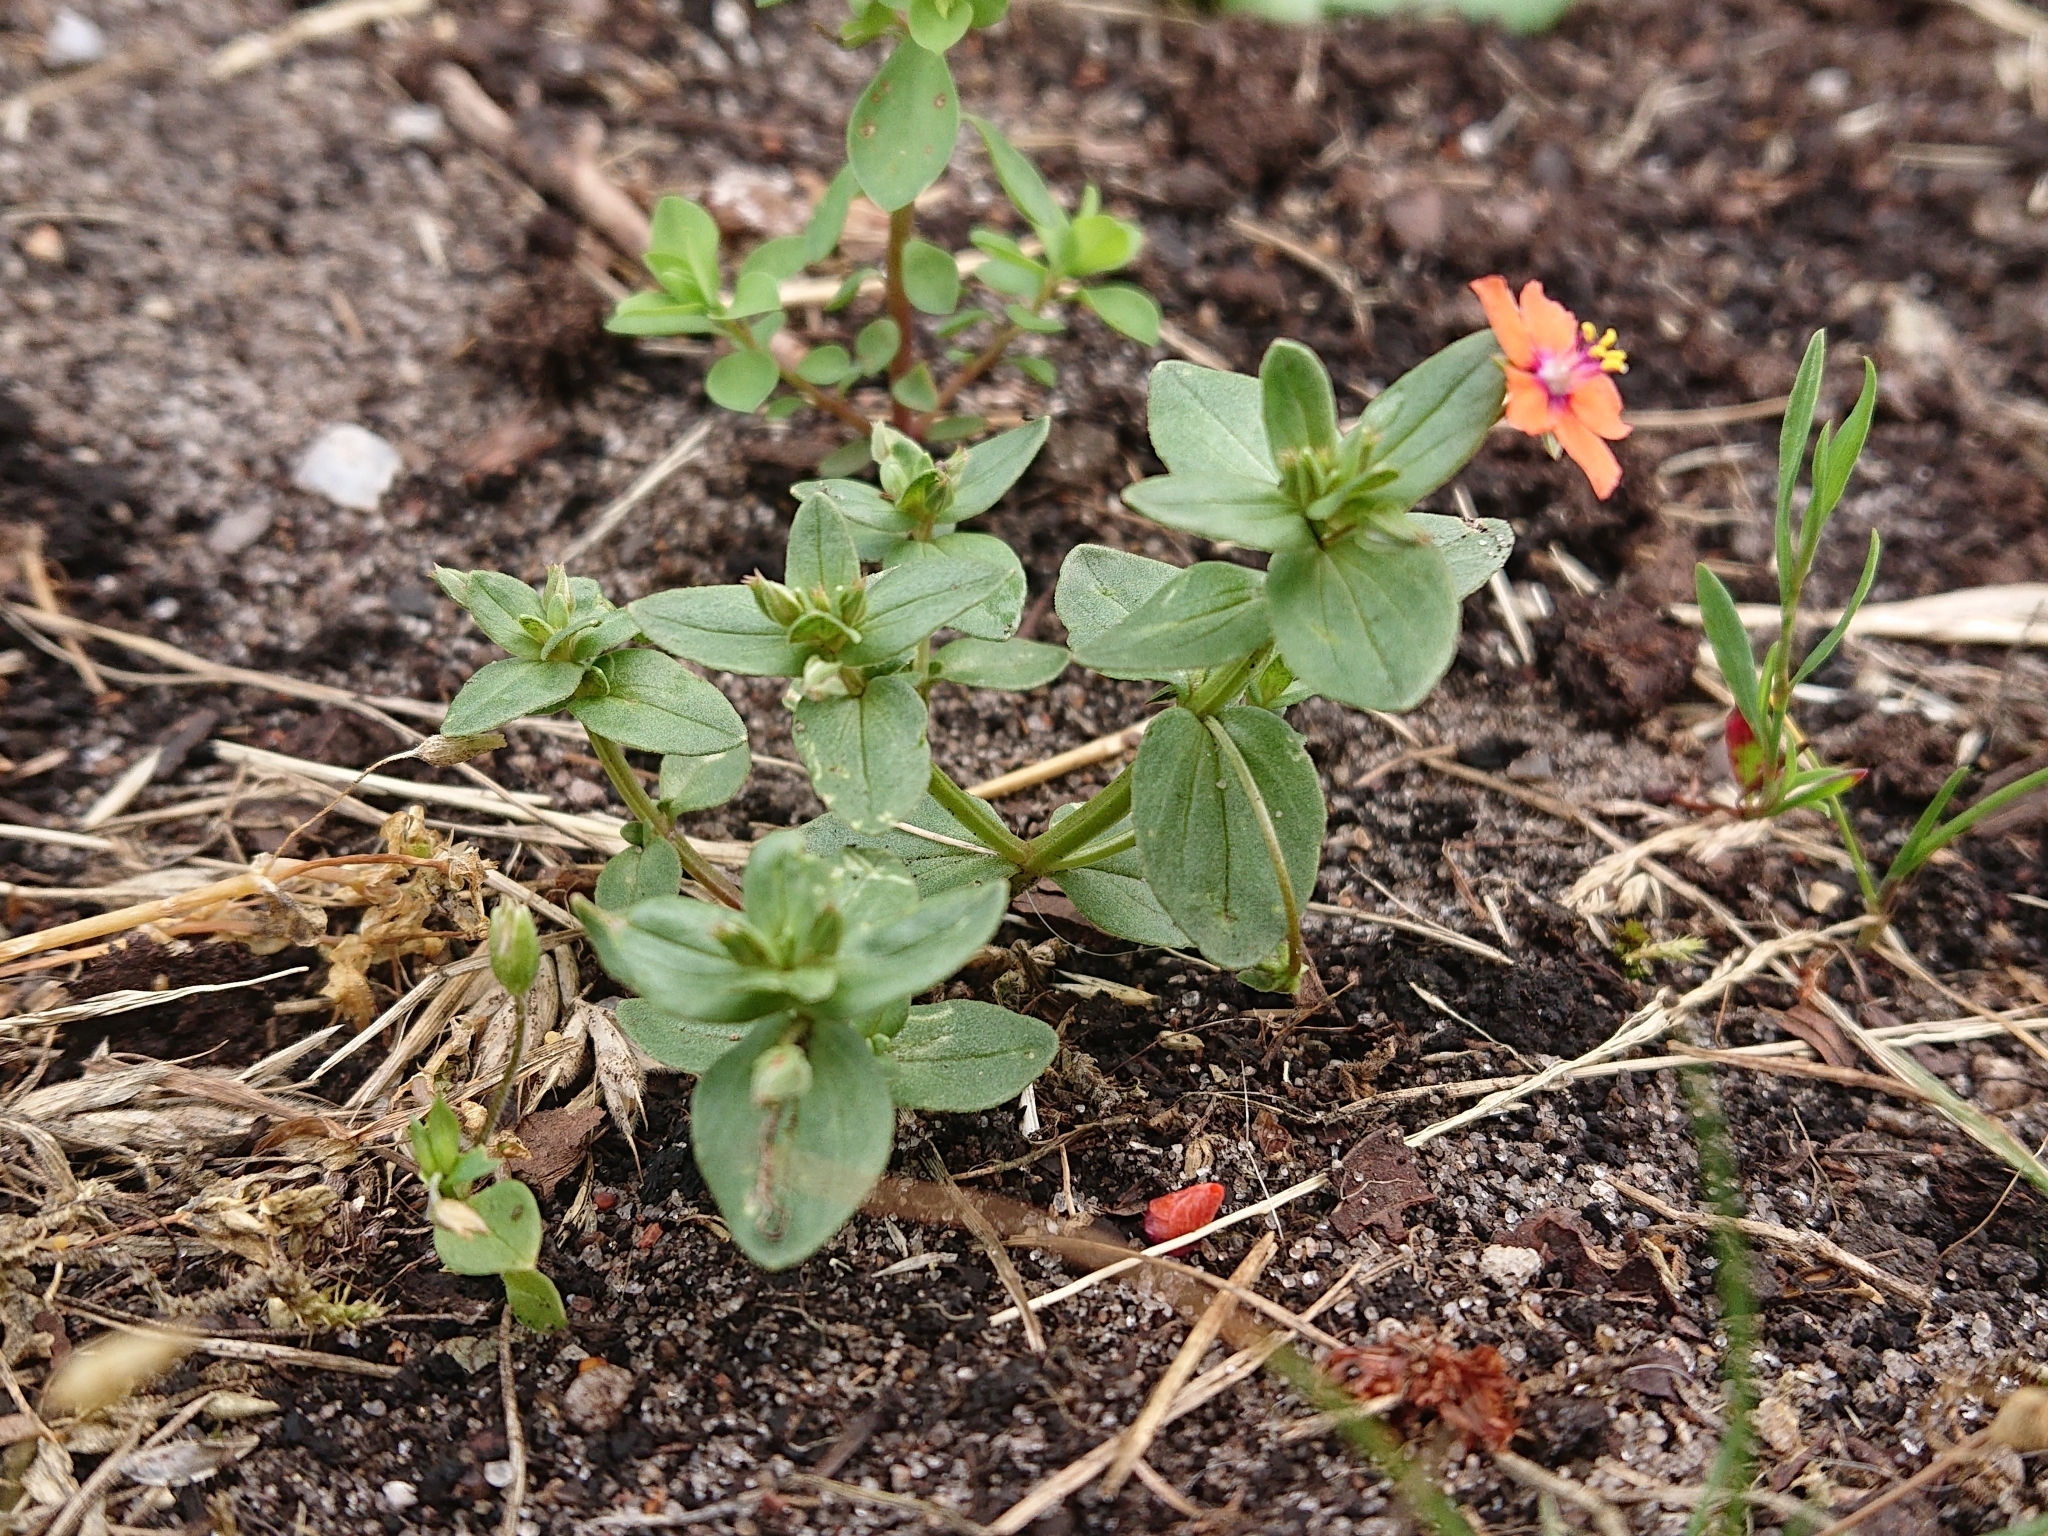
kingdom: Plantae
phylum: Tracheophyta
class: Magnoliopsida
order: Ericales
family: Primulaceae
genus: Lysimachia
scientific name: Lysimachia arvensis
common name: Scarlet pimpernel
